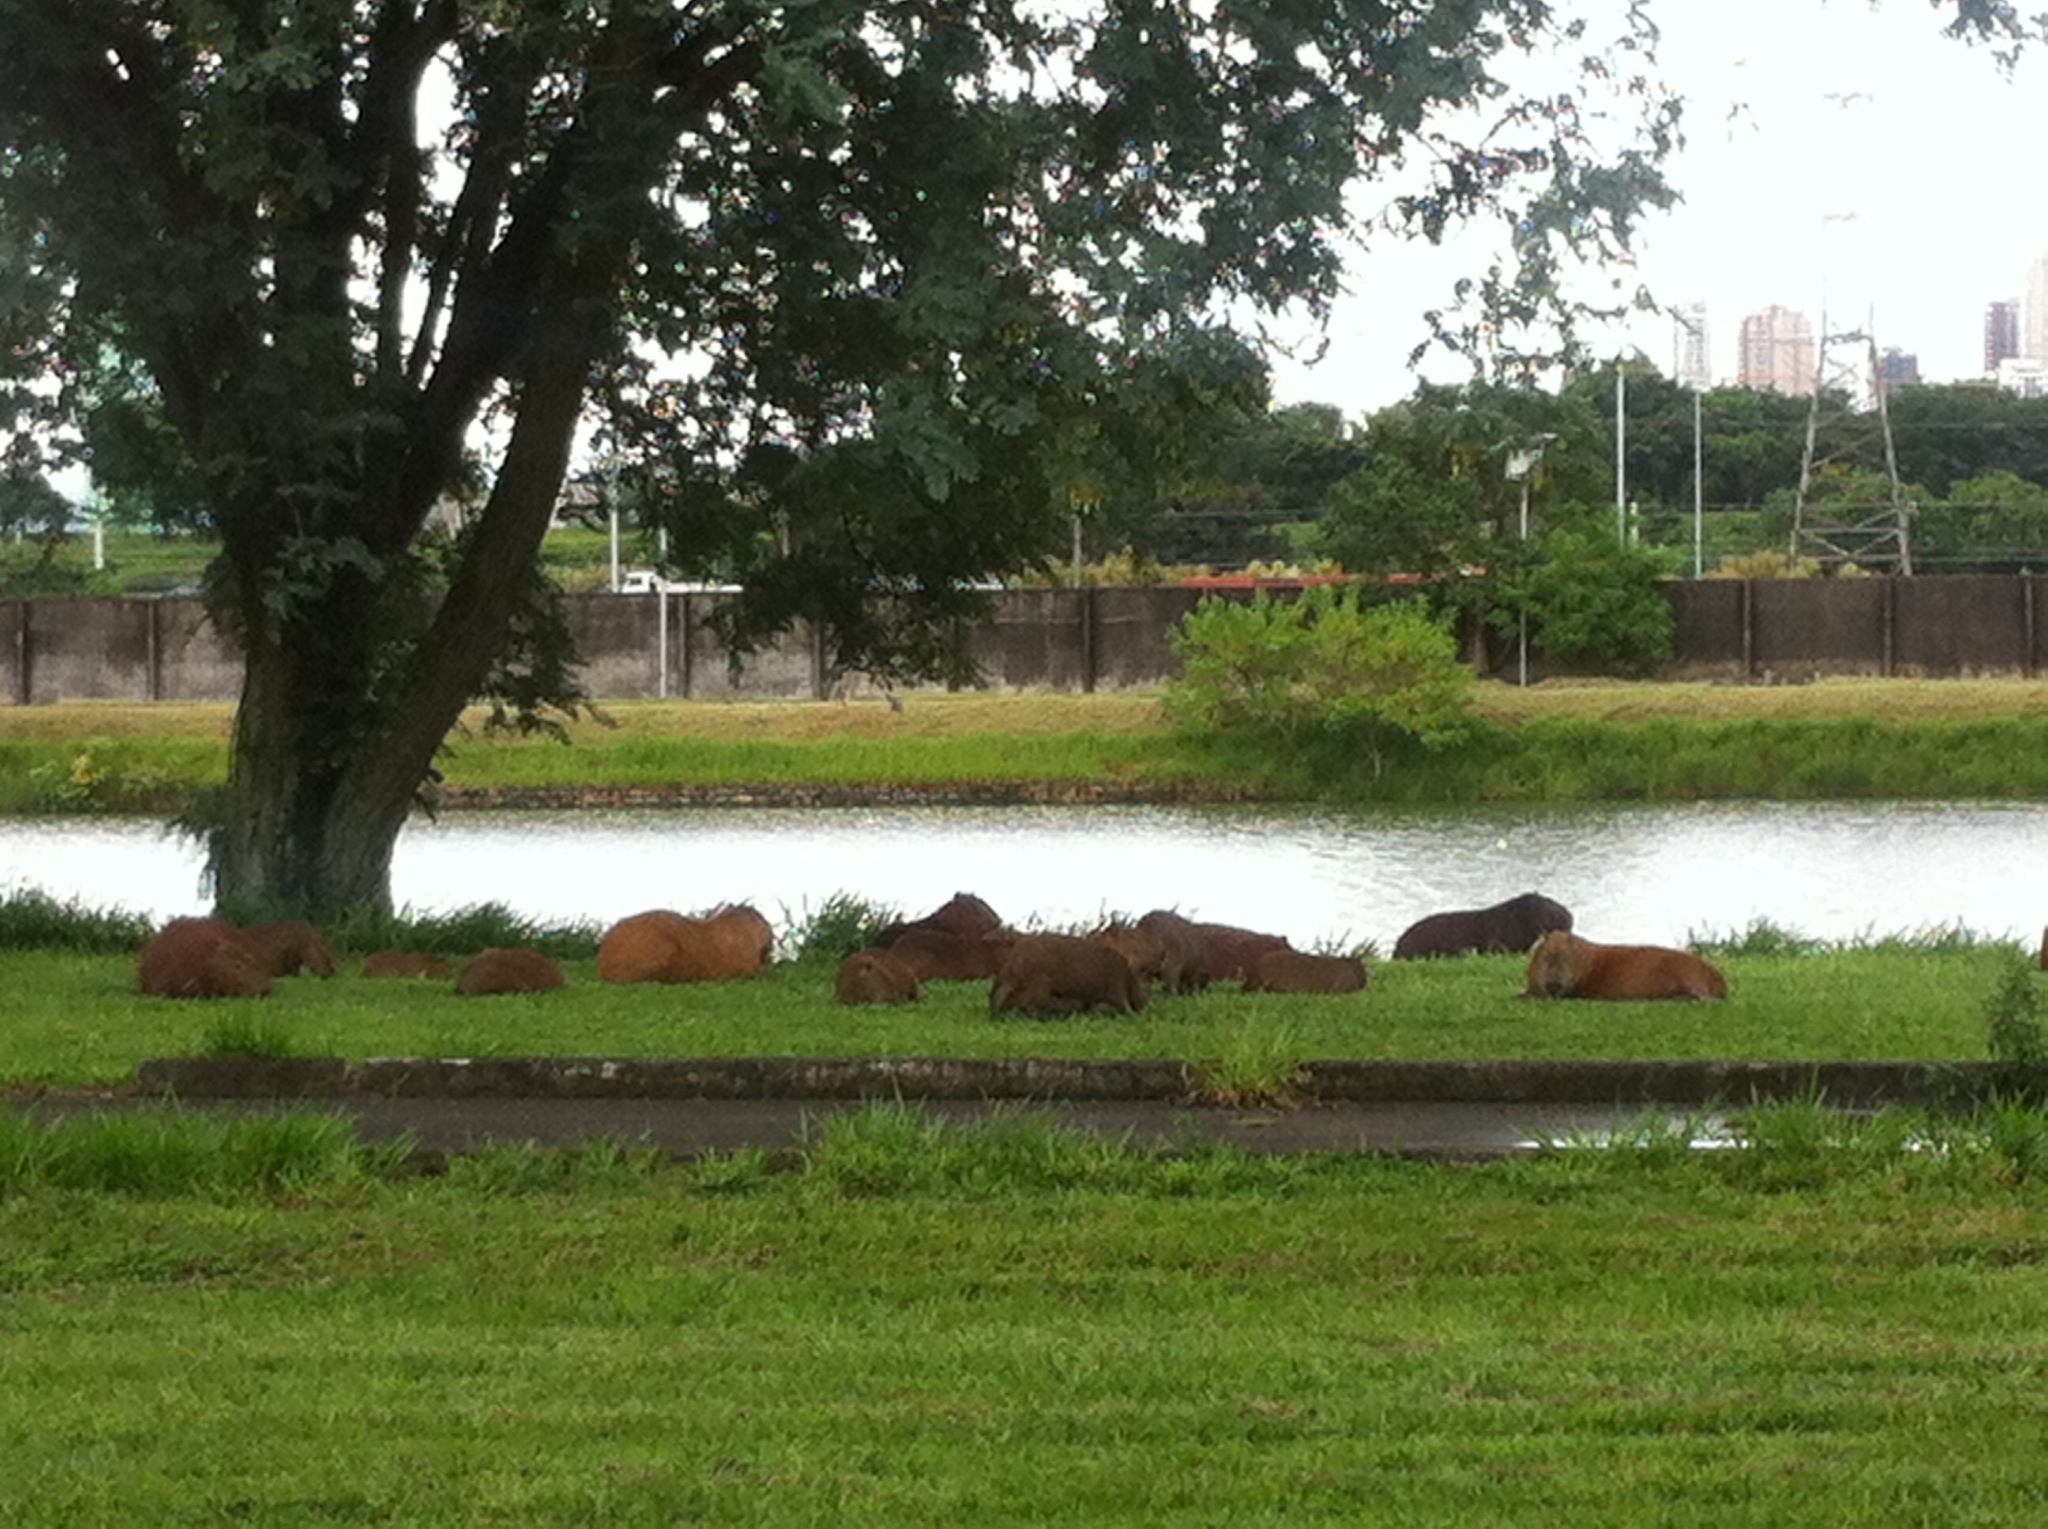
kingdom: Animalia
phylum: Chordata
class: Mammalia
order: Rodentia
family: Caviidae
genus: Hydrochoerus
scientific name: Hydrochoerus hydrochaeris
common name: Capybara
